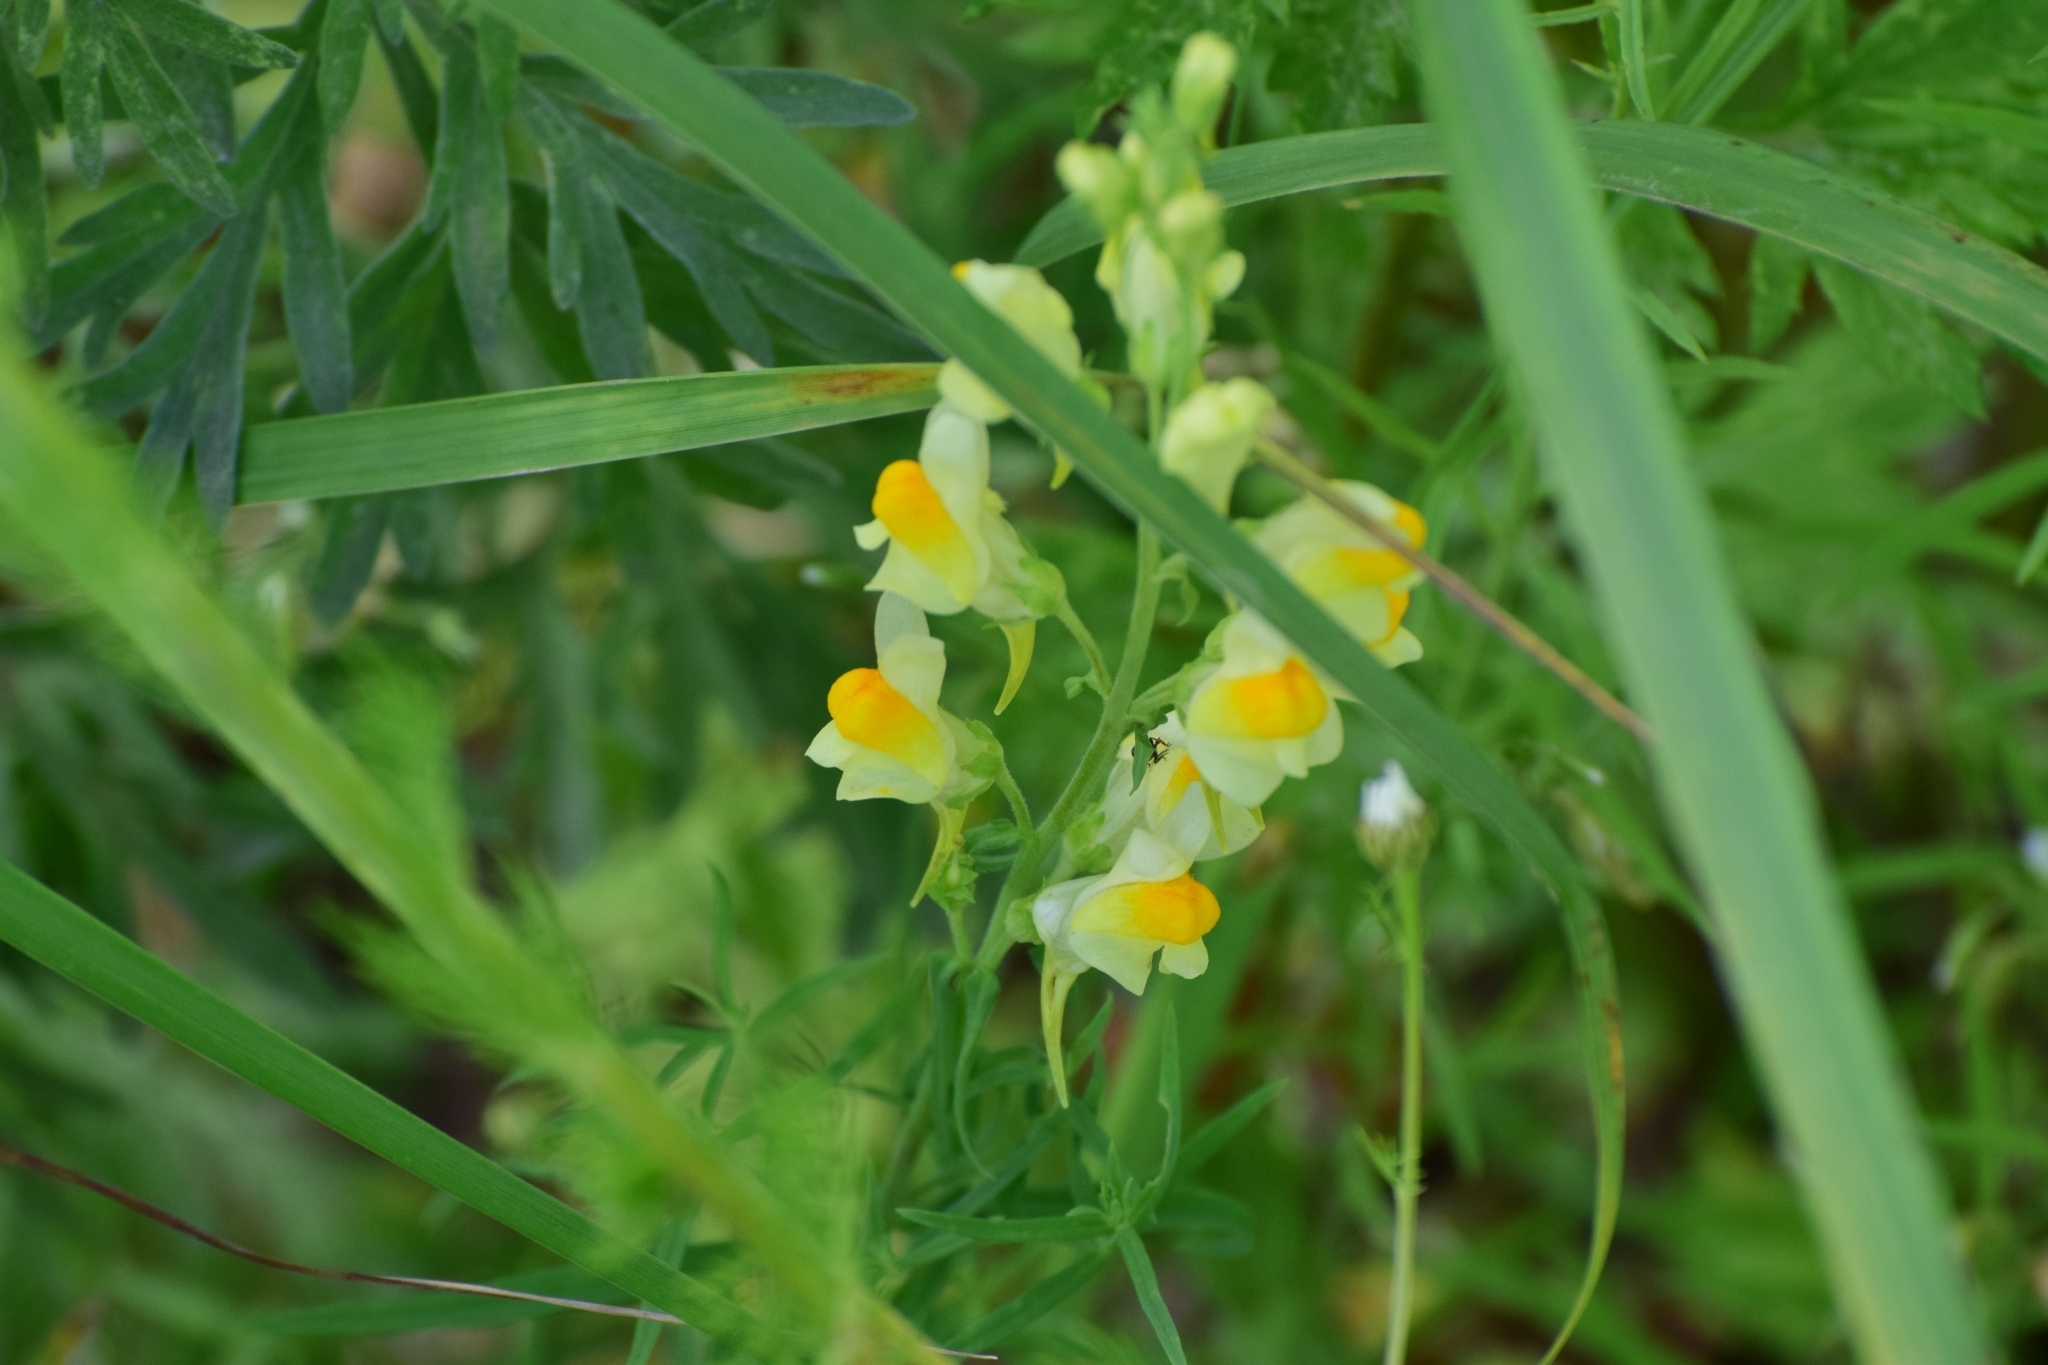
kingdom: Plantae
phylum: Tracheophyta
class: Magnoliopsida
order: Lamiales
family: Plantaginaceae
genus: Linaria
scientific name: Linaria vulgaris
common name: Butter and eggs
